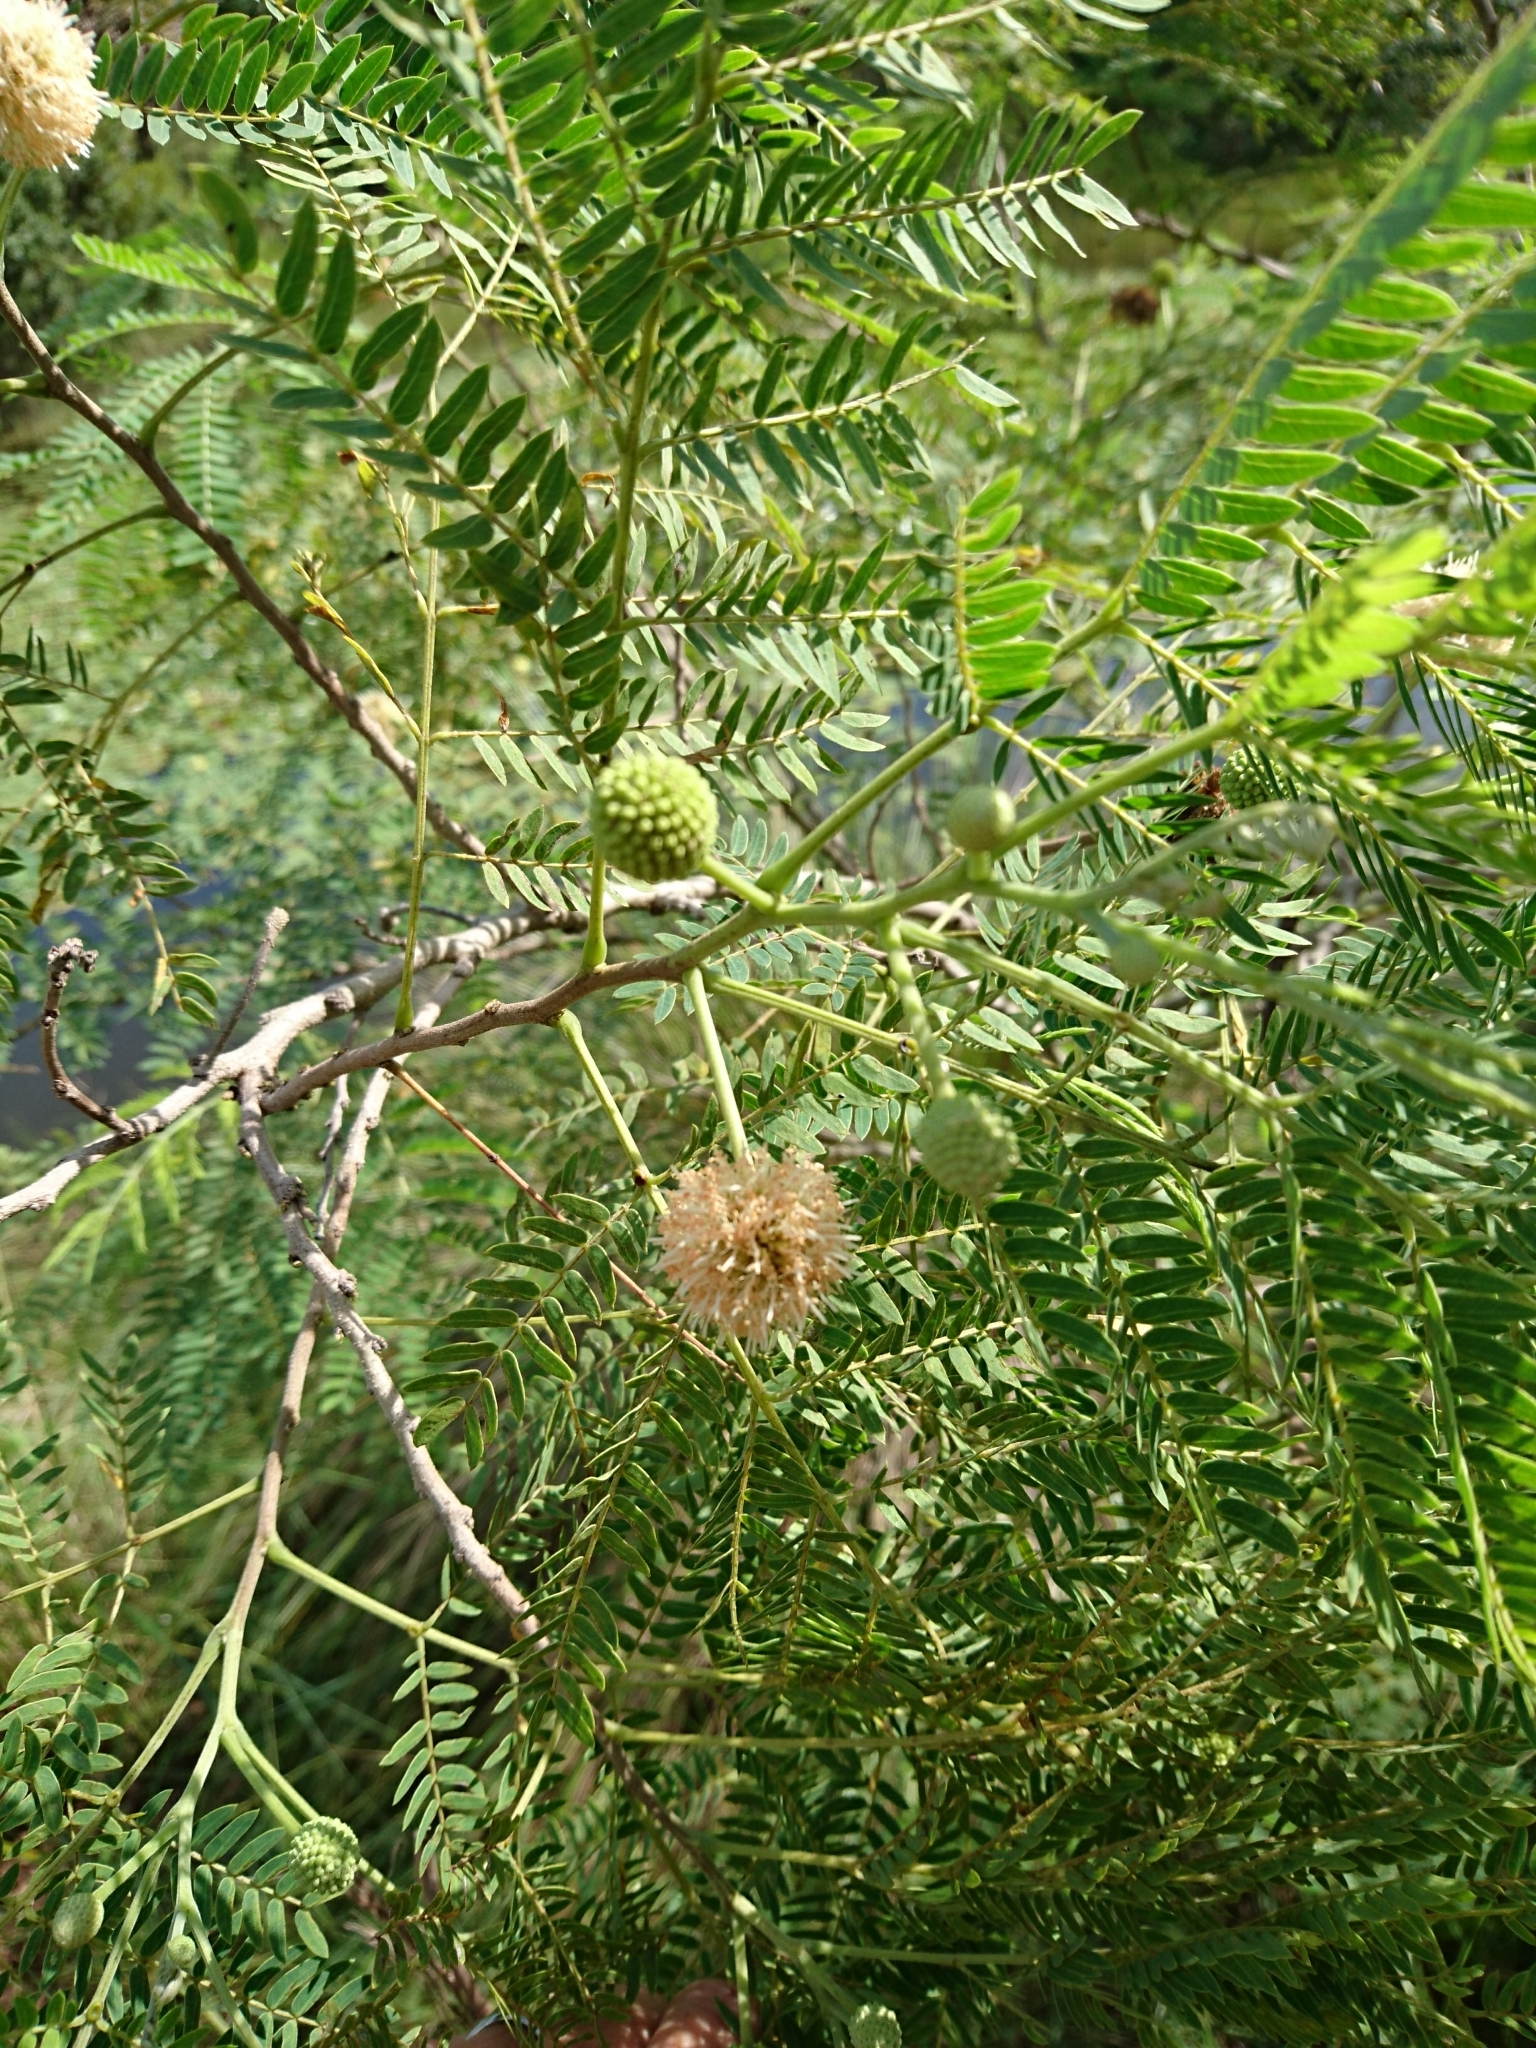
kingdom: Plantae
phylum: Tracheophyta
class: Magnoliopsida
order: Fabales
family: Fabaceae
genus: Leucaena
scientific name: Leucaena leucocephala
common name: White leadtree
